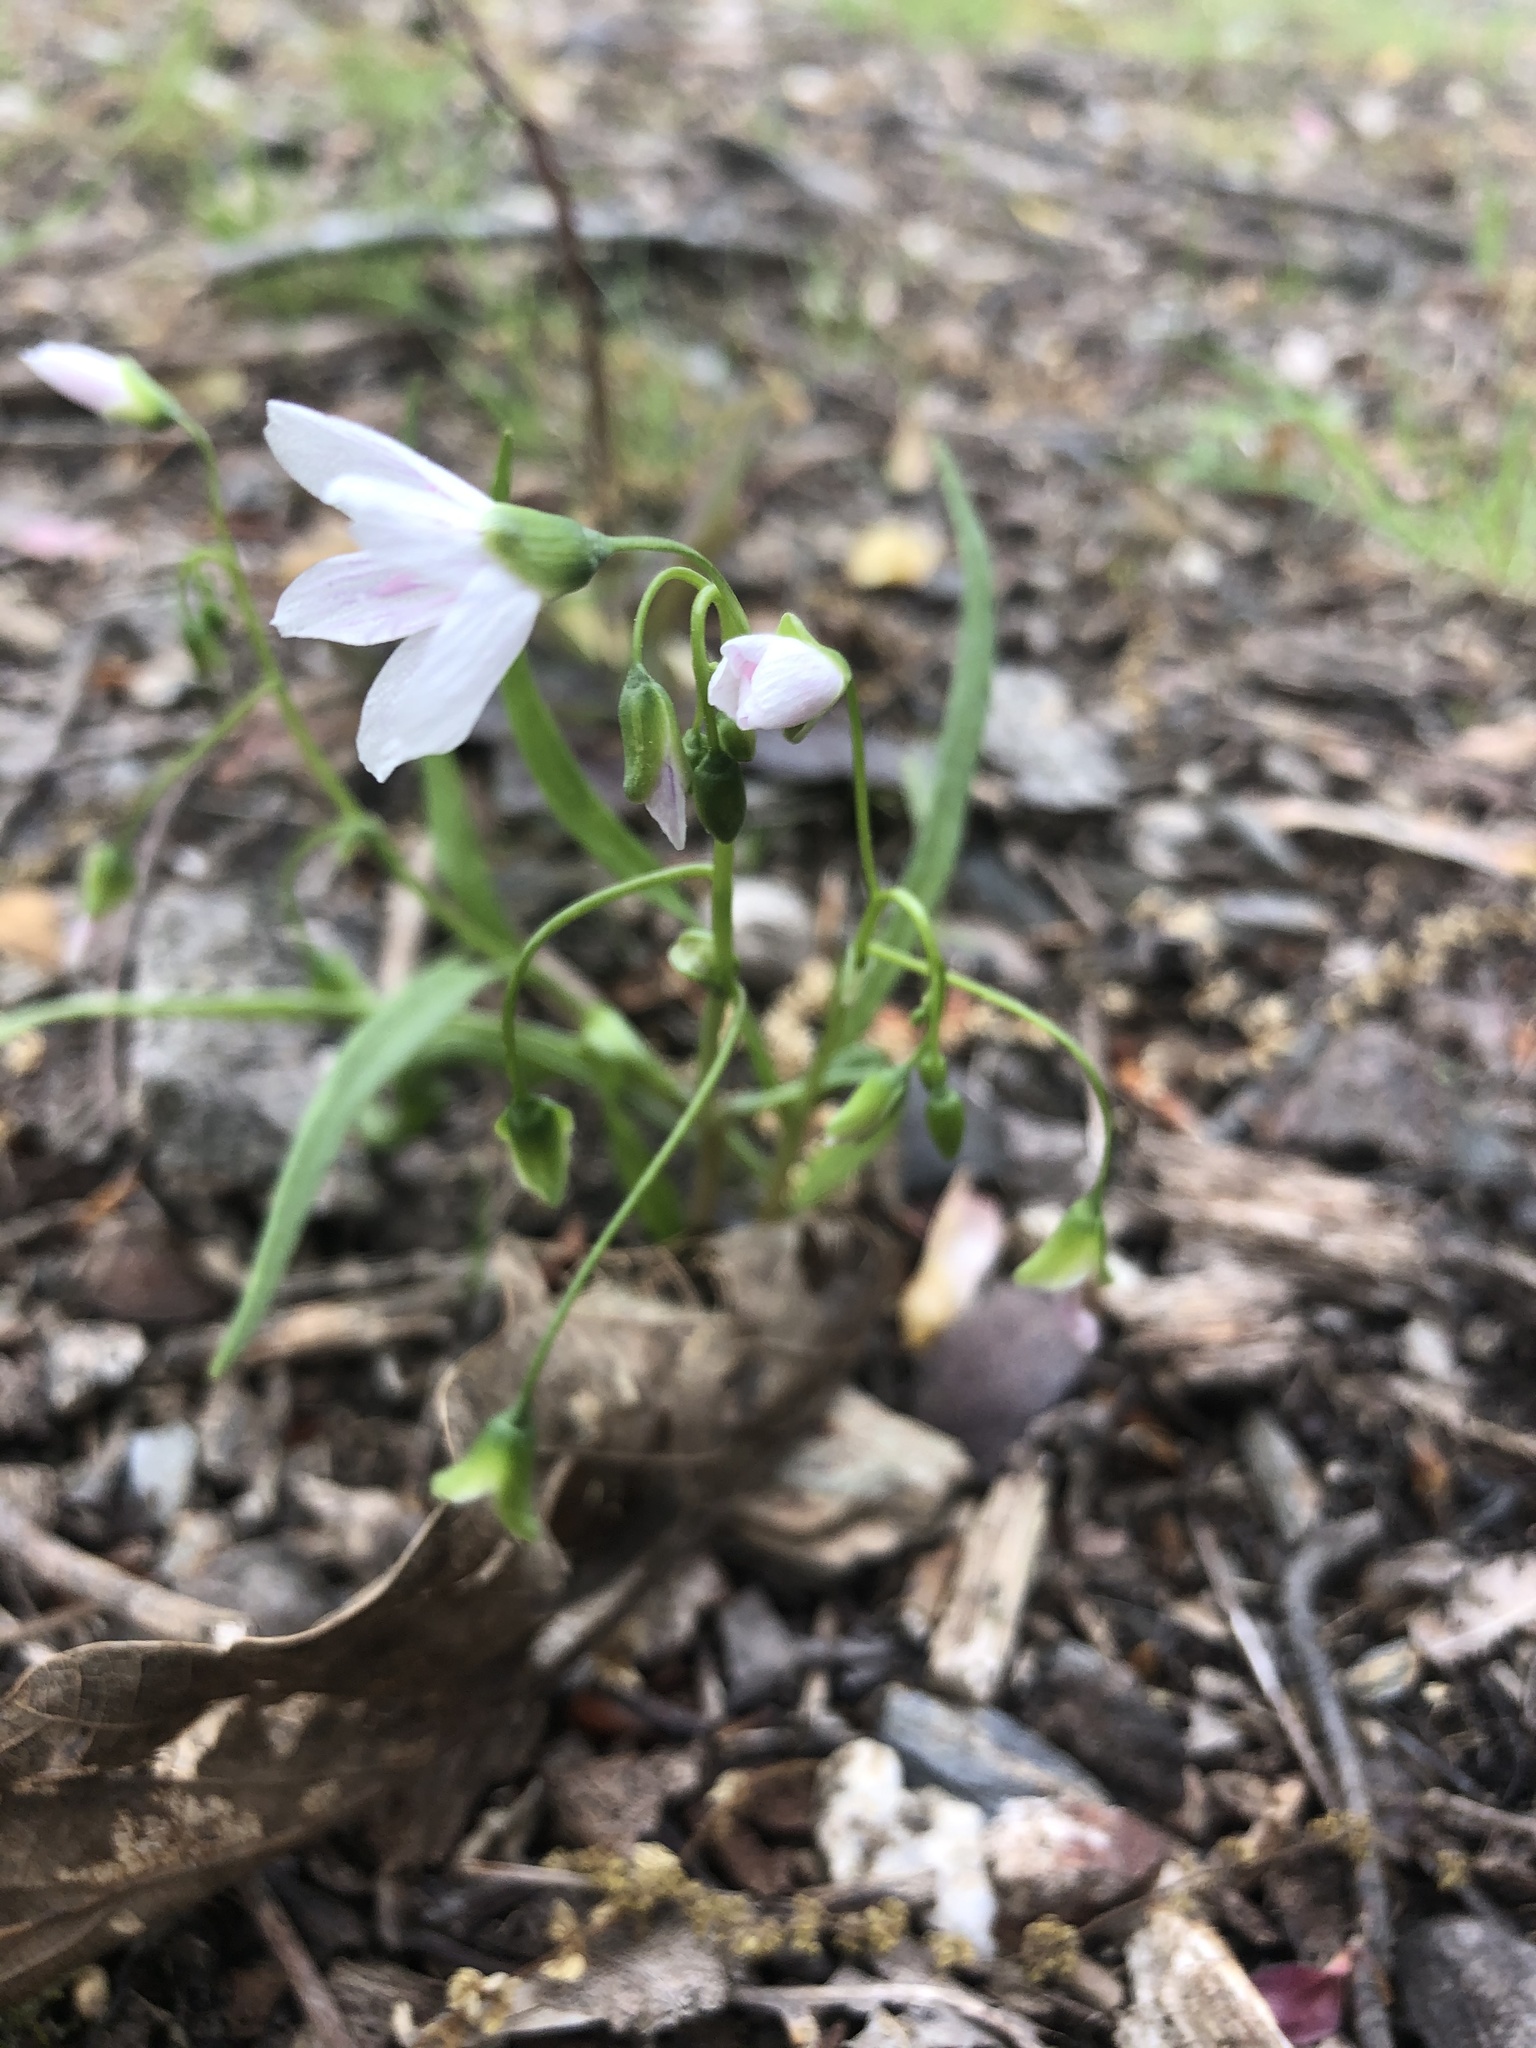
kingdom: Plantae
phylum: Tracheophyta
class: Magnoliopsida
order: Caryophyllales
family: Montiaceae
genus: Claytonia
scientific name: Claytonia virginica
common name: Virginia springbeauty
